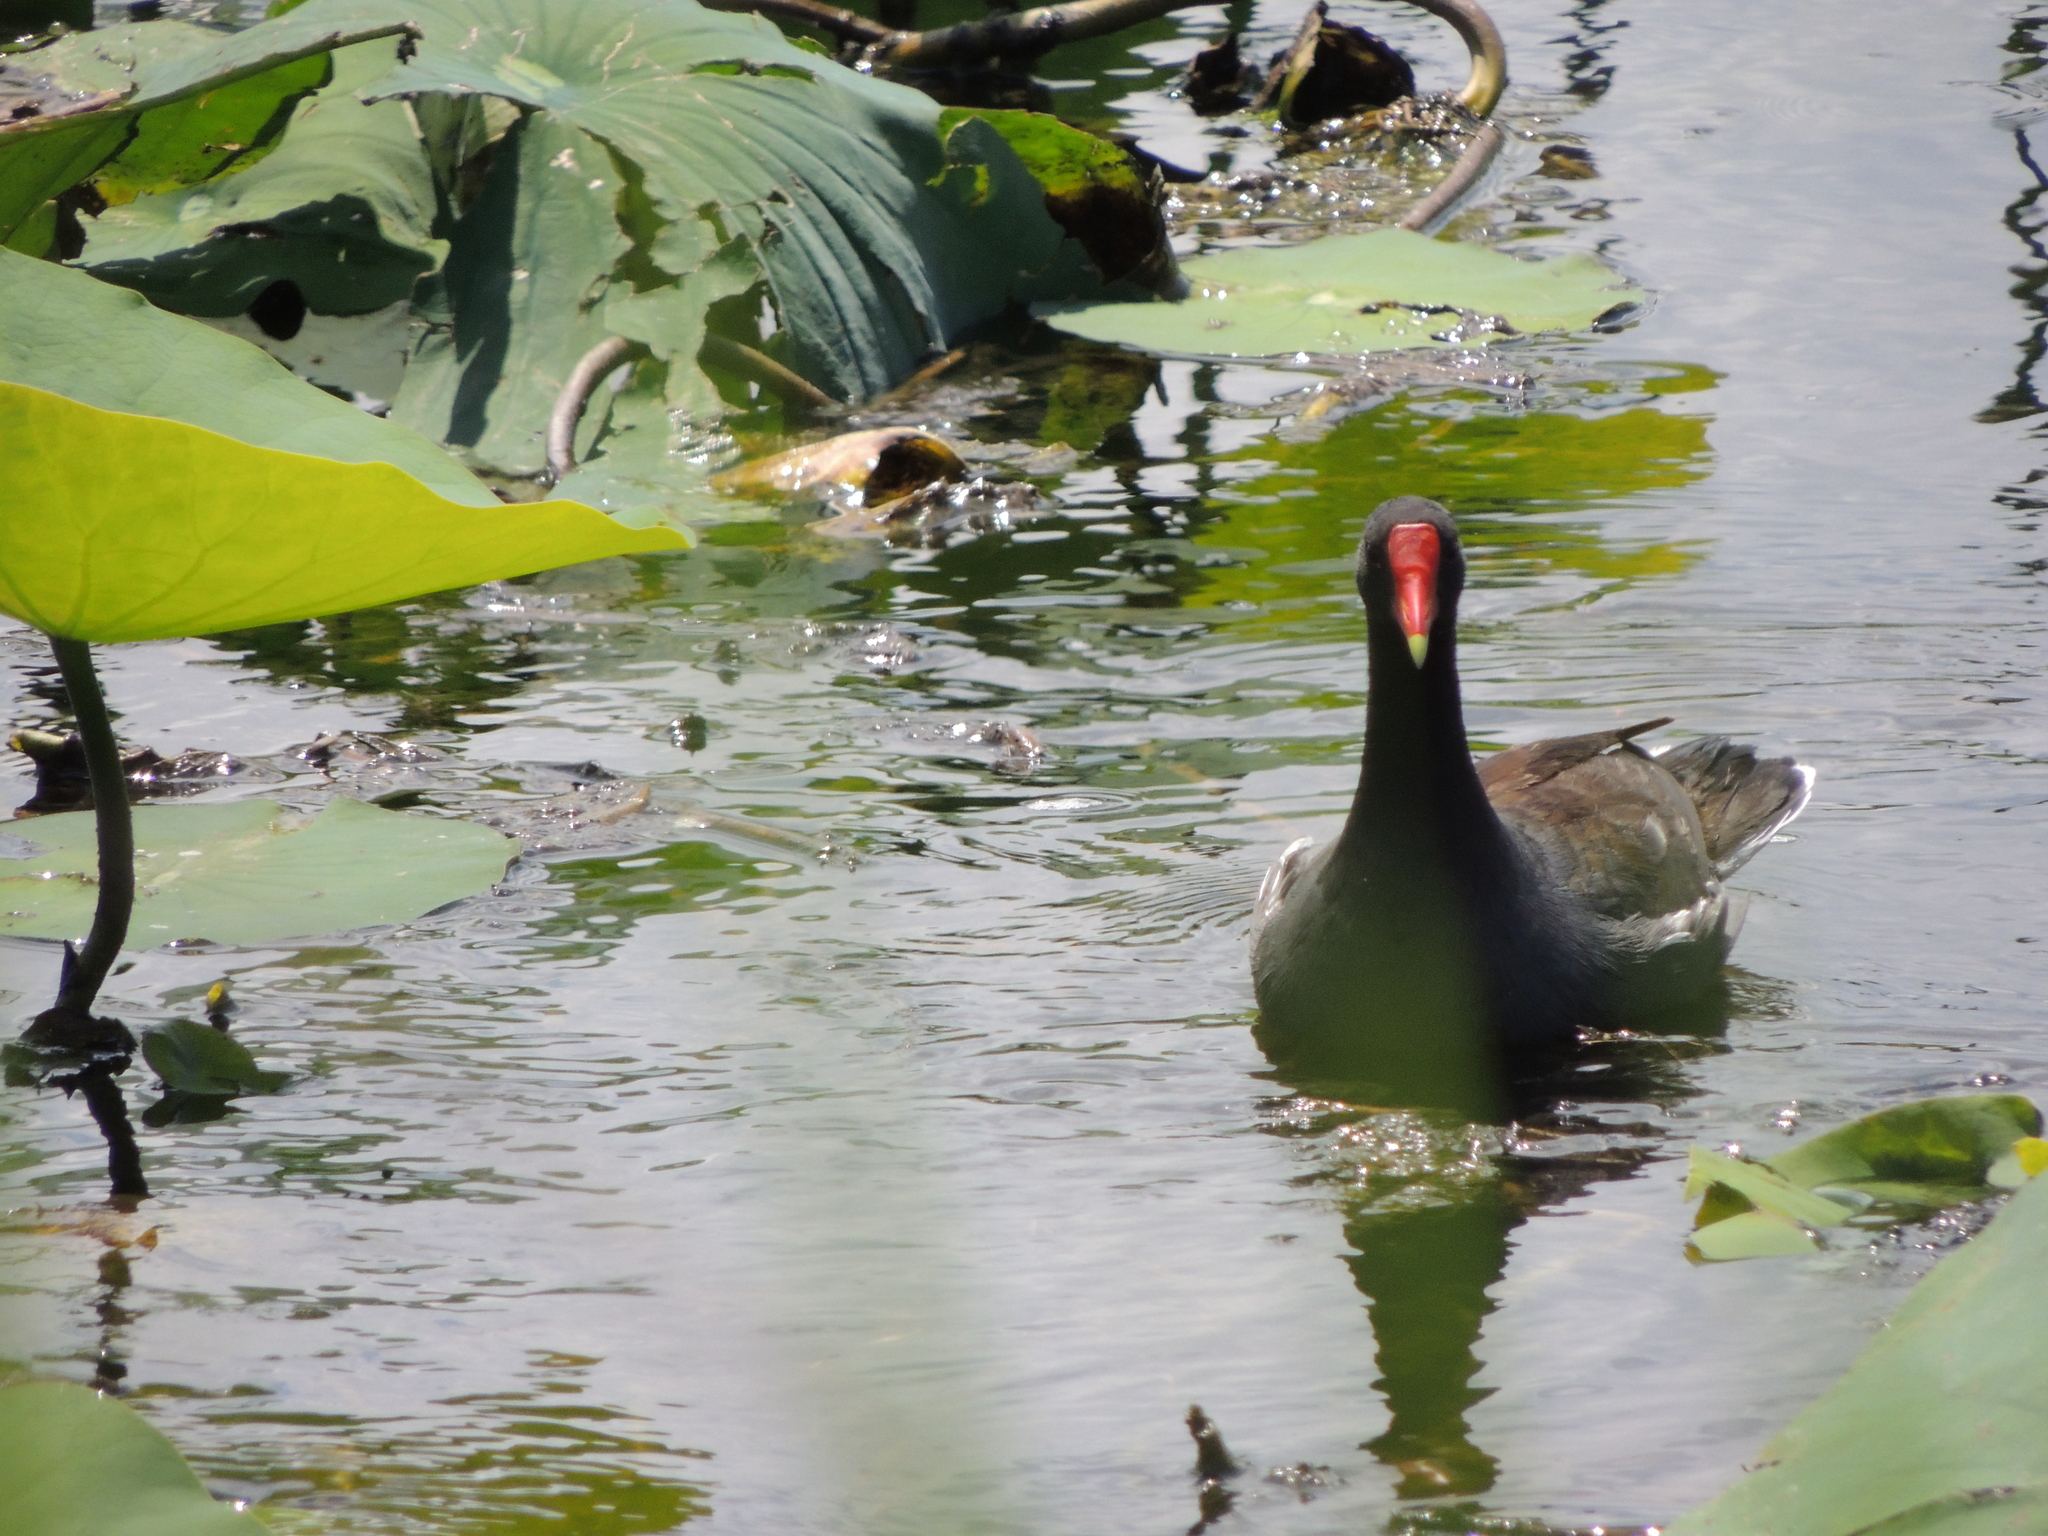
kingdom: Animalia
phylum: Chordata
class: Aves
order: Gruiformes
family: Rallidae
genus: Gallinula
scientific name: Gallinula chloropus
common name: Common moorhen
